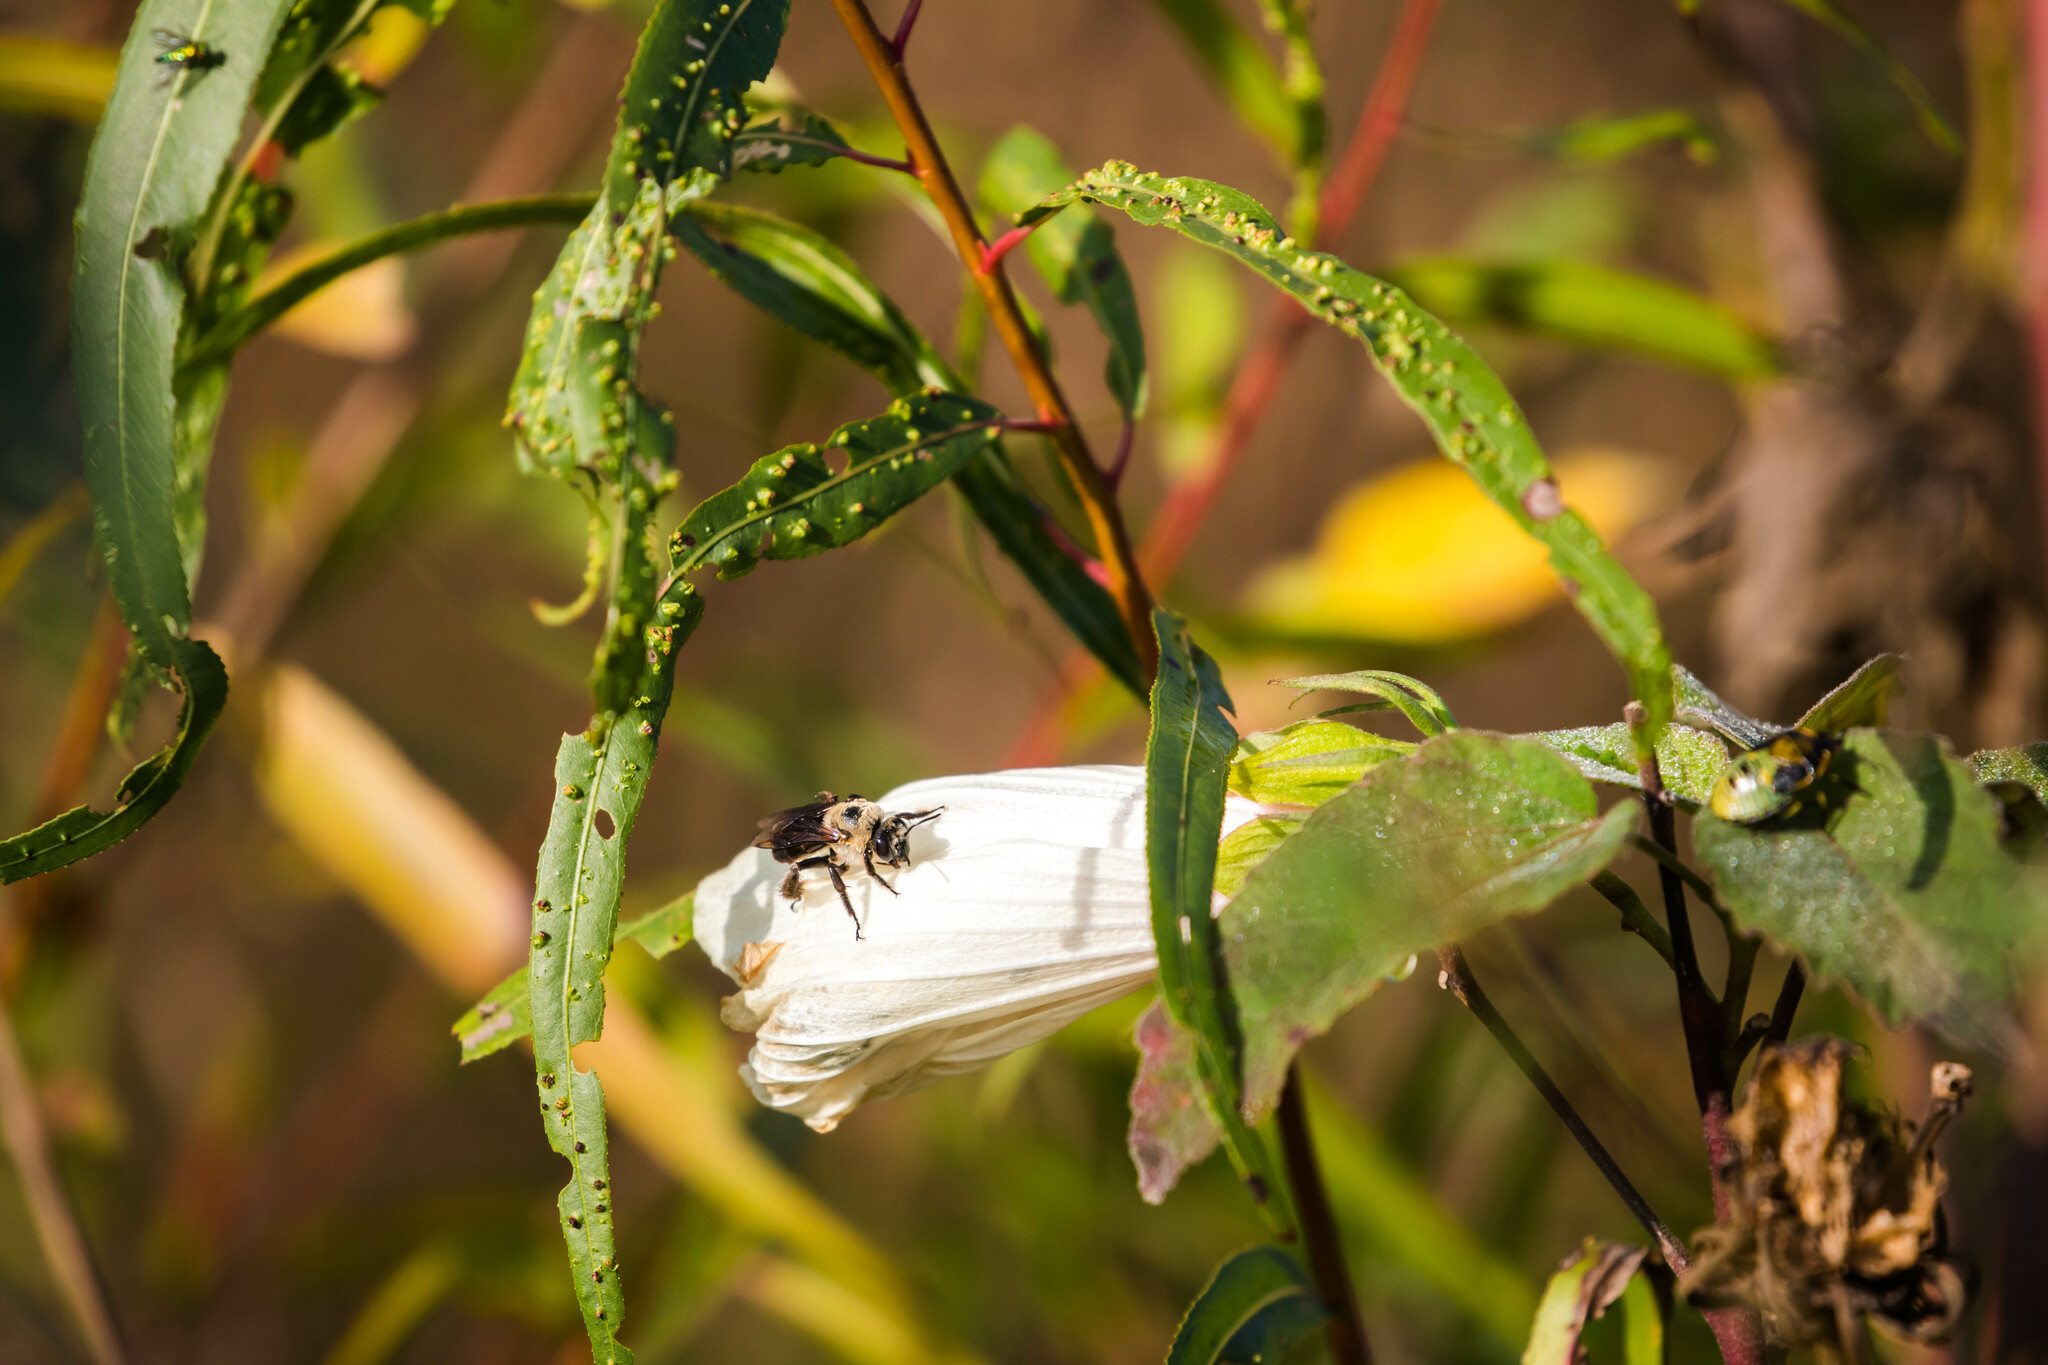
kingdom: Animalia
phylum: Arthropoda
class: Insecta
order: Hymenoptera
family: Apidae
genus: Ptilothrix
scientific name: Ptilothrix bombiformis
